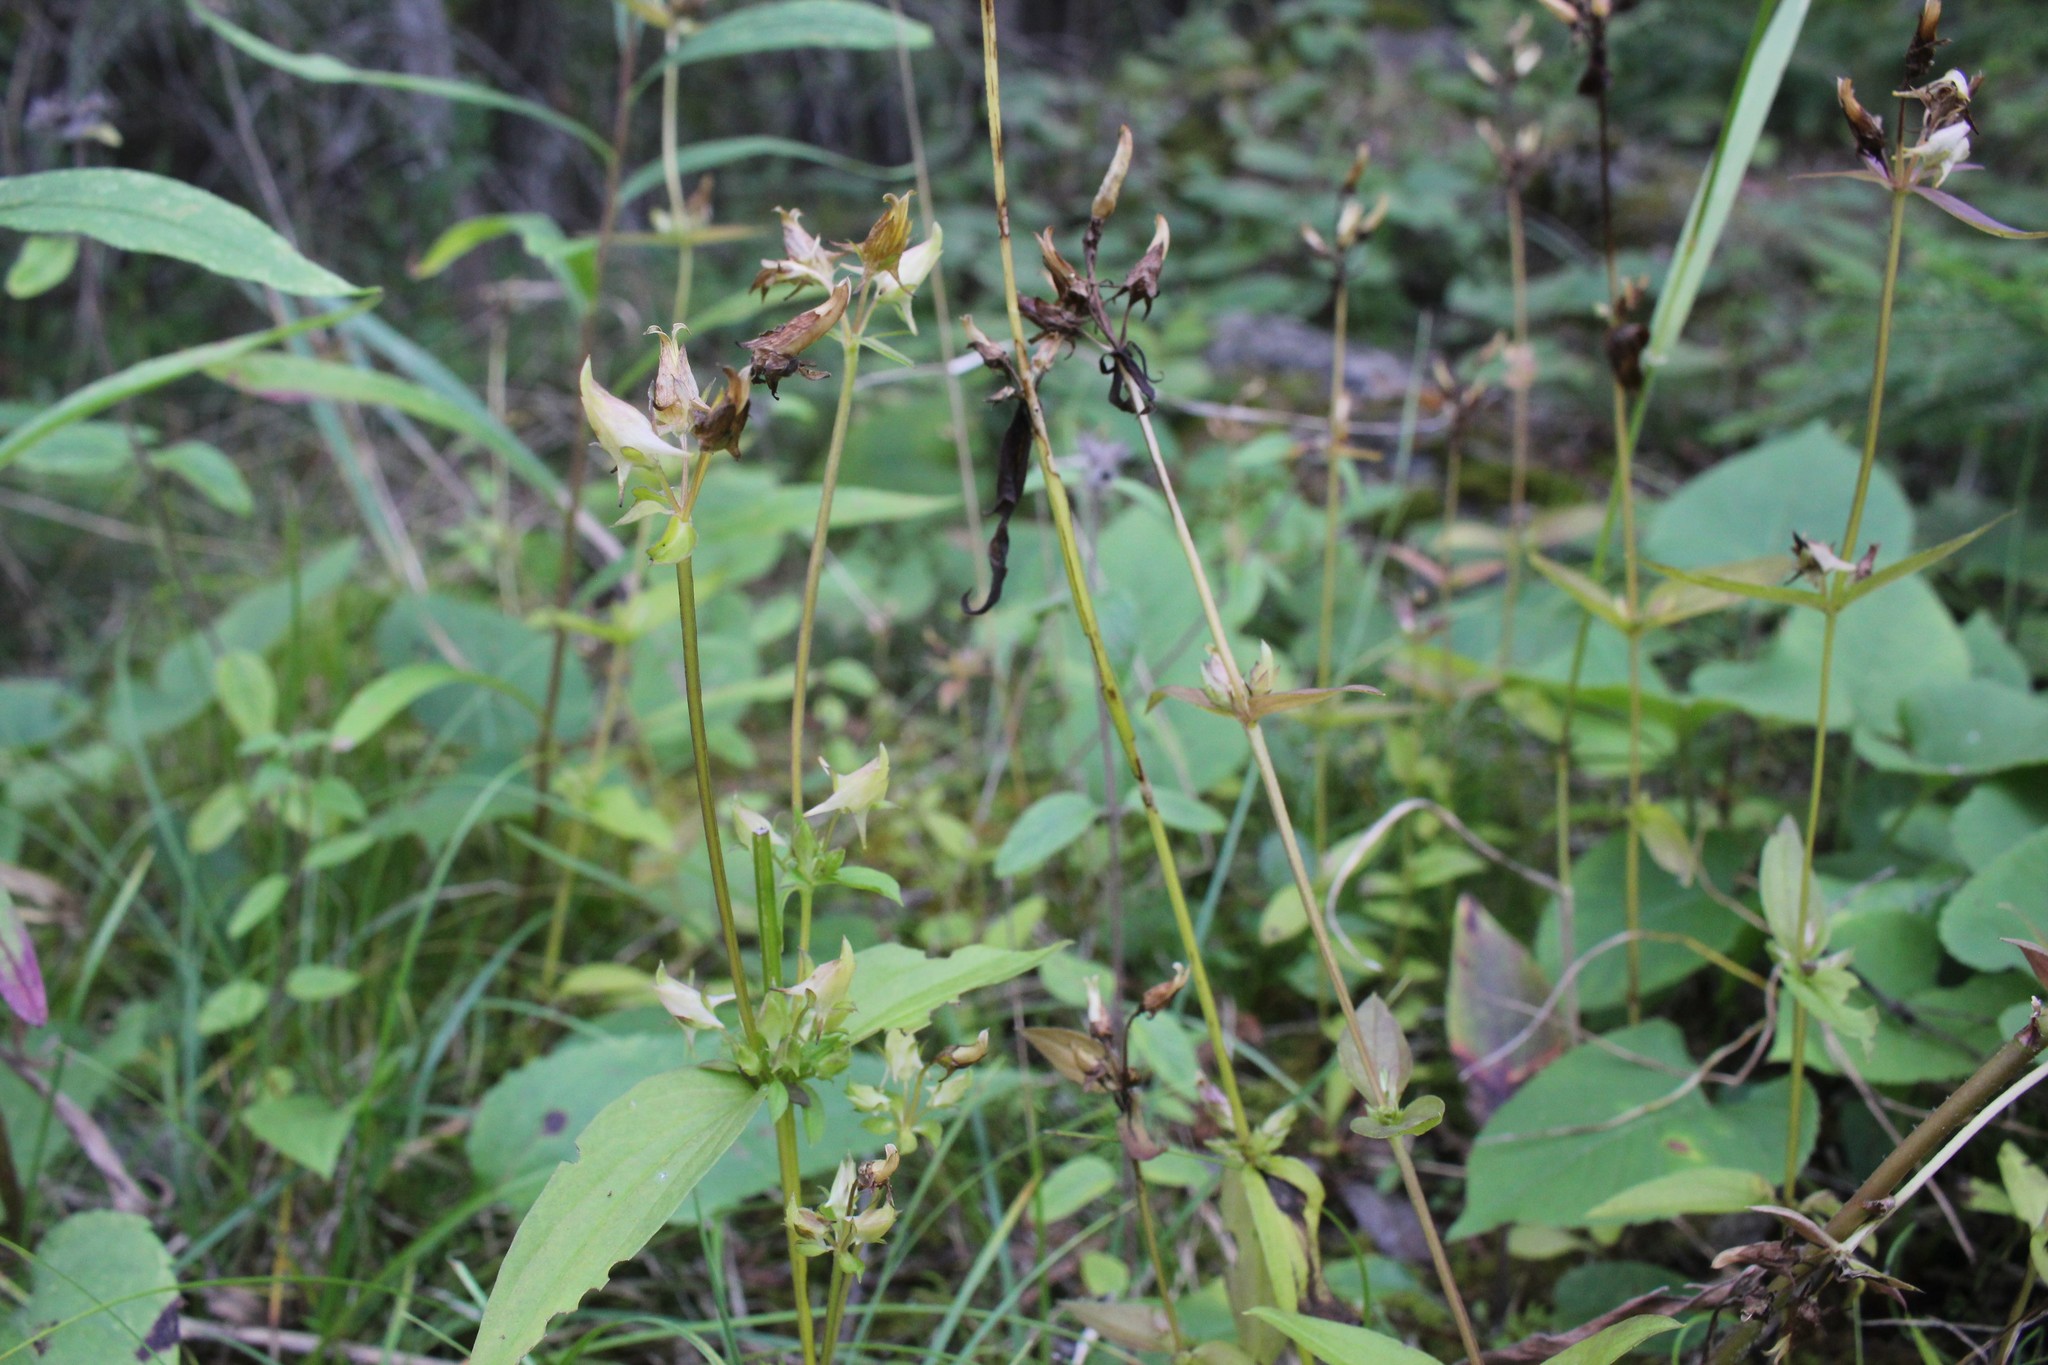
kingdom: Plantae
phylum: Tracheophyta
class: Magnoliopsida
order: Gentianales
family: Gentianaceae
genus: Halenia
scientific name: Halenia deflexa
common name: American spurred gentian
